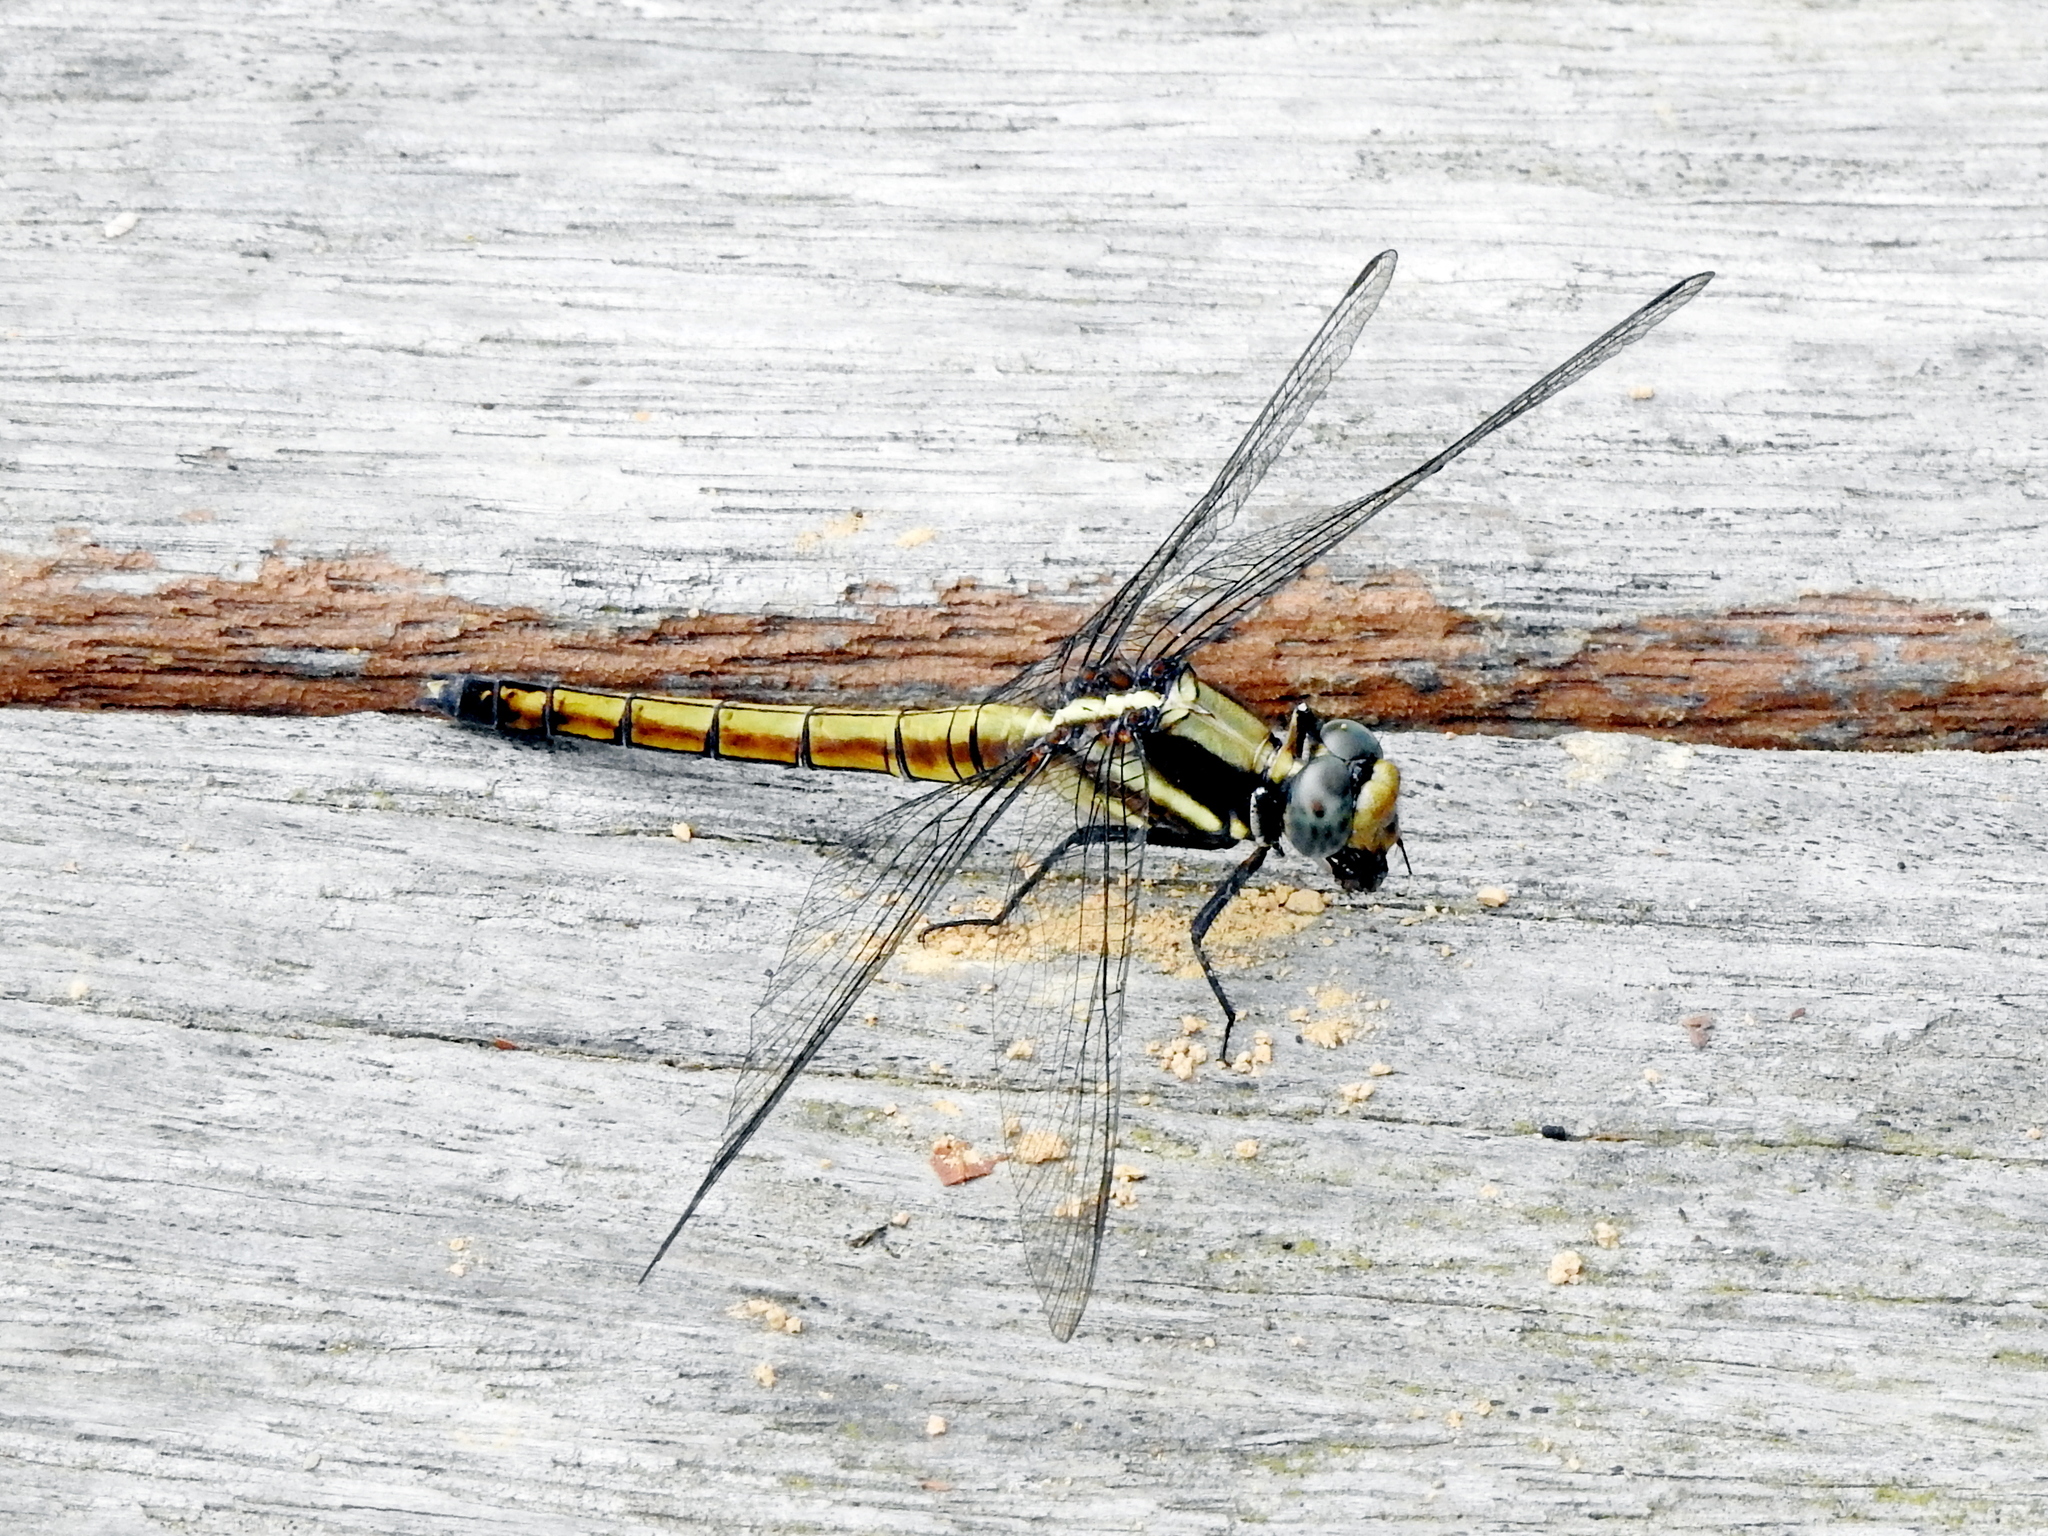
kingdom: Animalia
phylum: Arthropoda
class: Insecta
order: Odonata
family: Libellulidae
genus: Orthetrum
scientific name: Orthetrum glaucum
